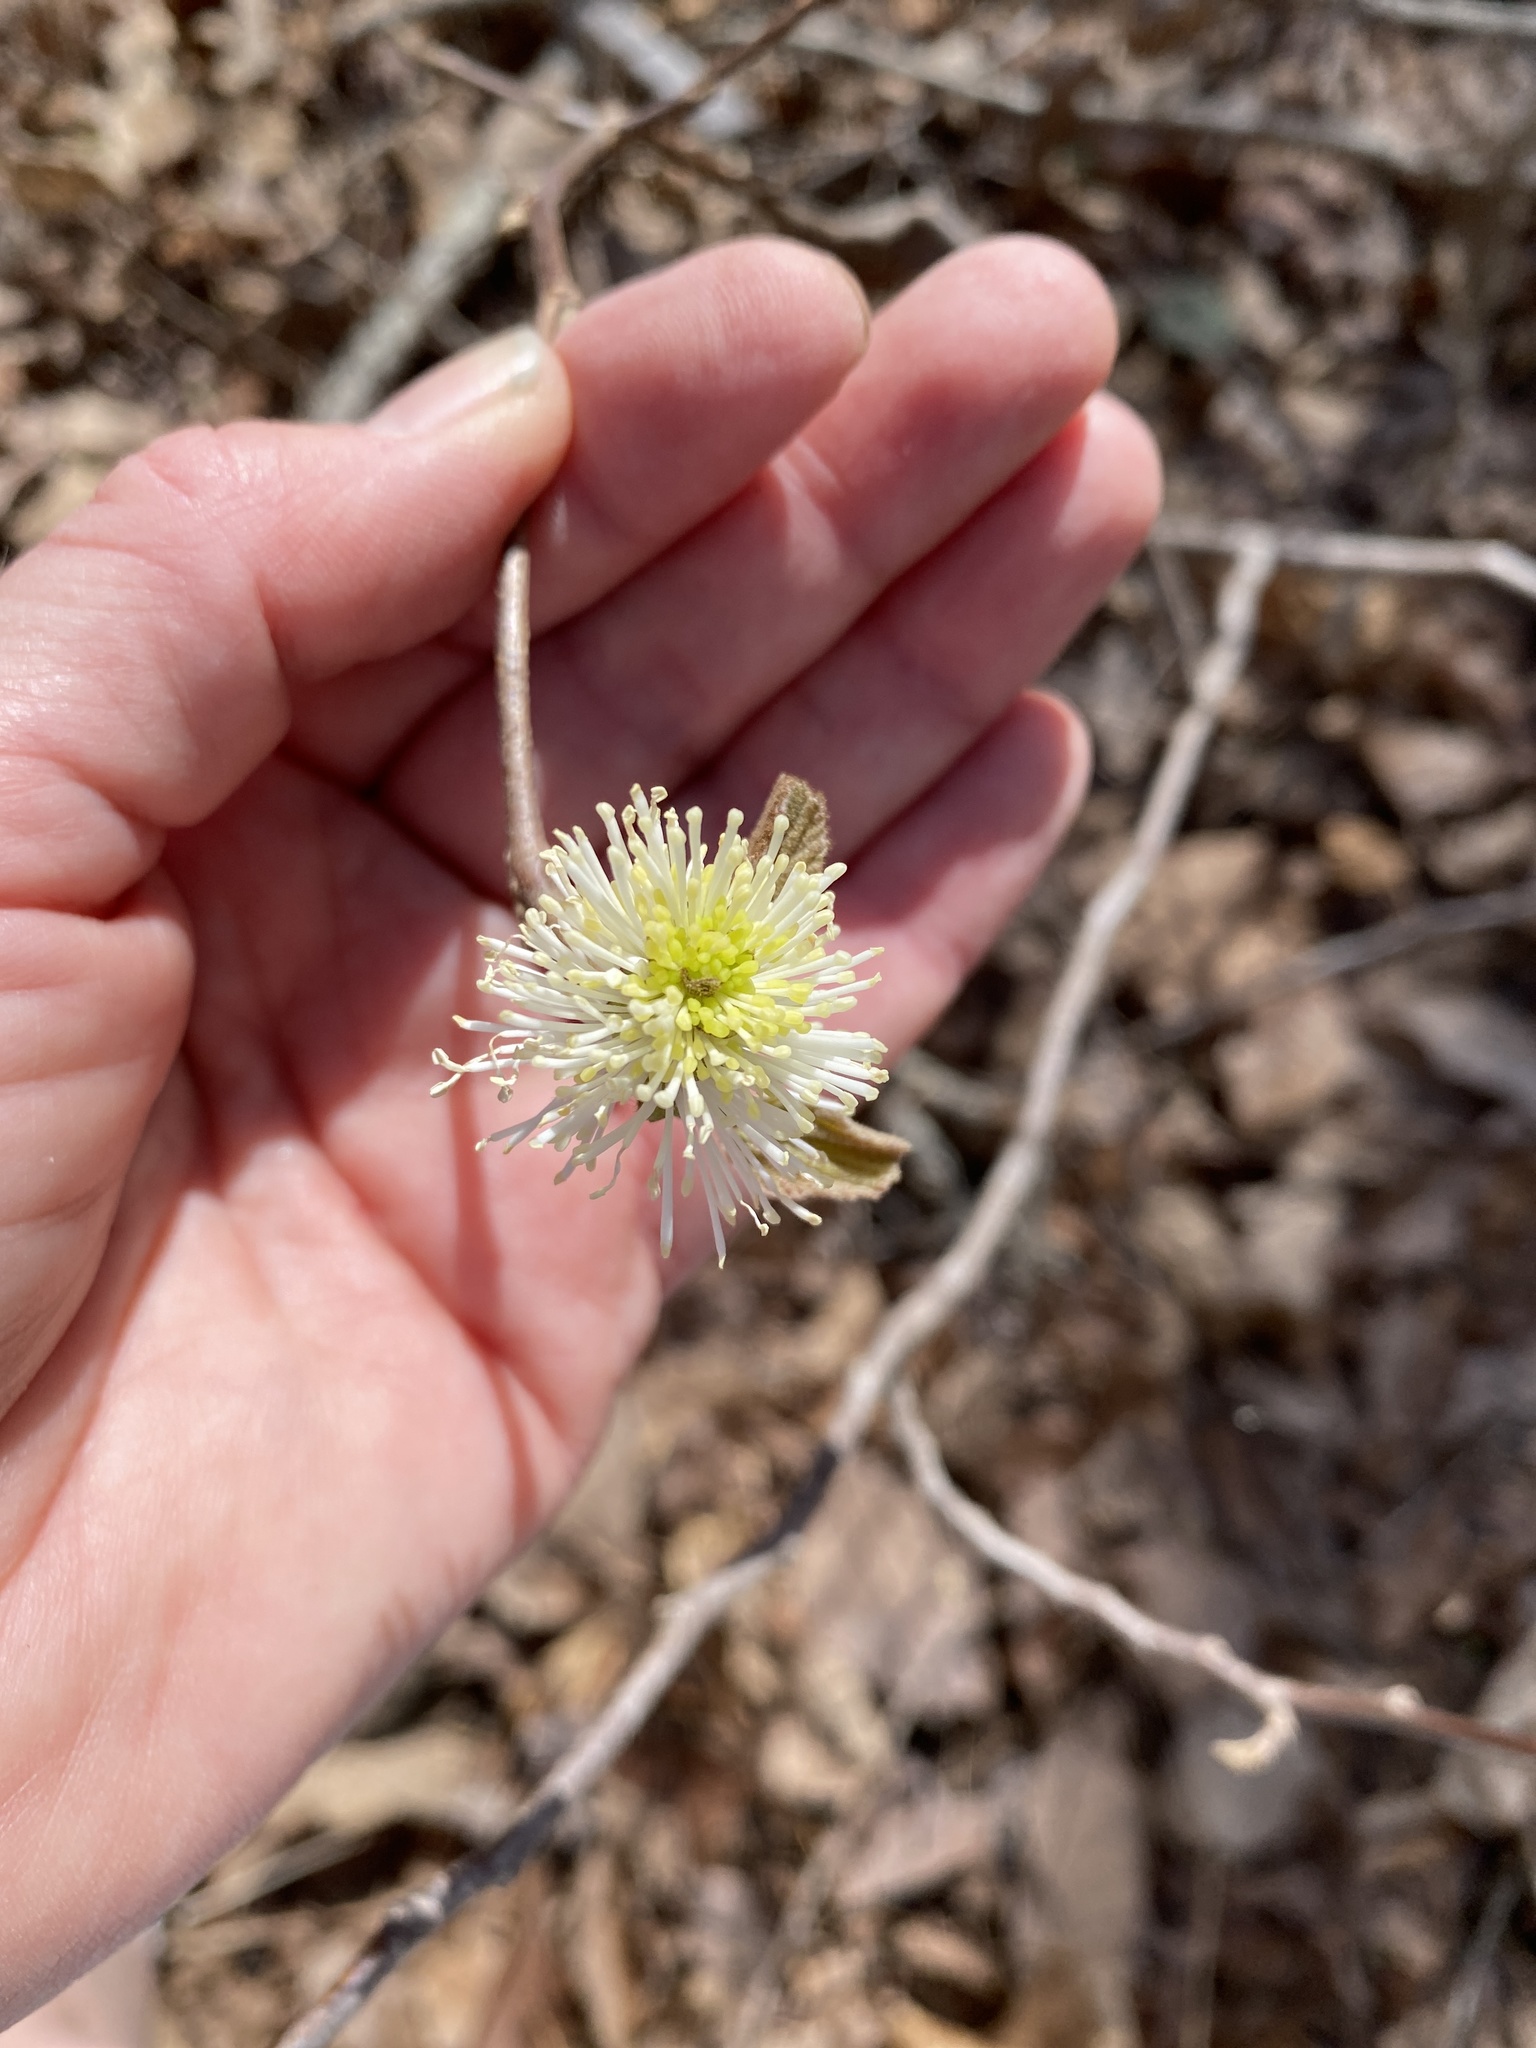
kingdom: Plantae
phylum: Tracheophyta
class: Magnoliopsida
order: Saxifragales
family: Hamamelidaceae
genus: Fothergilla
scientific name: Fothergilla latifolia
